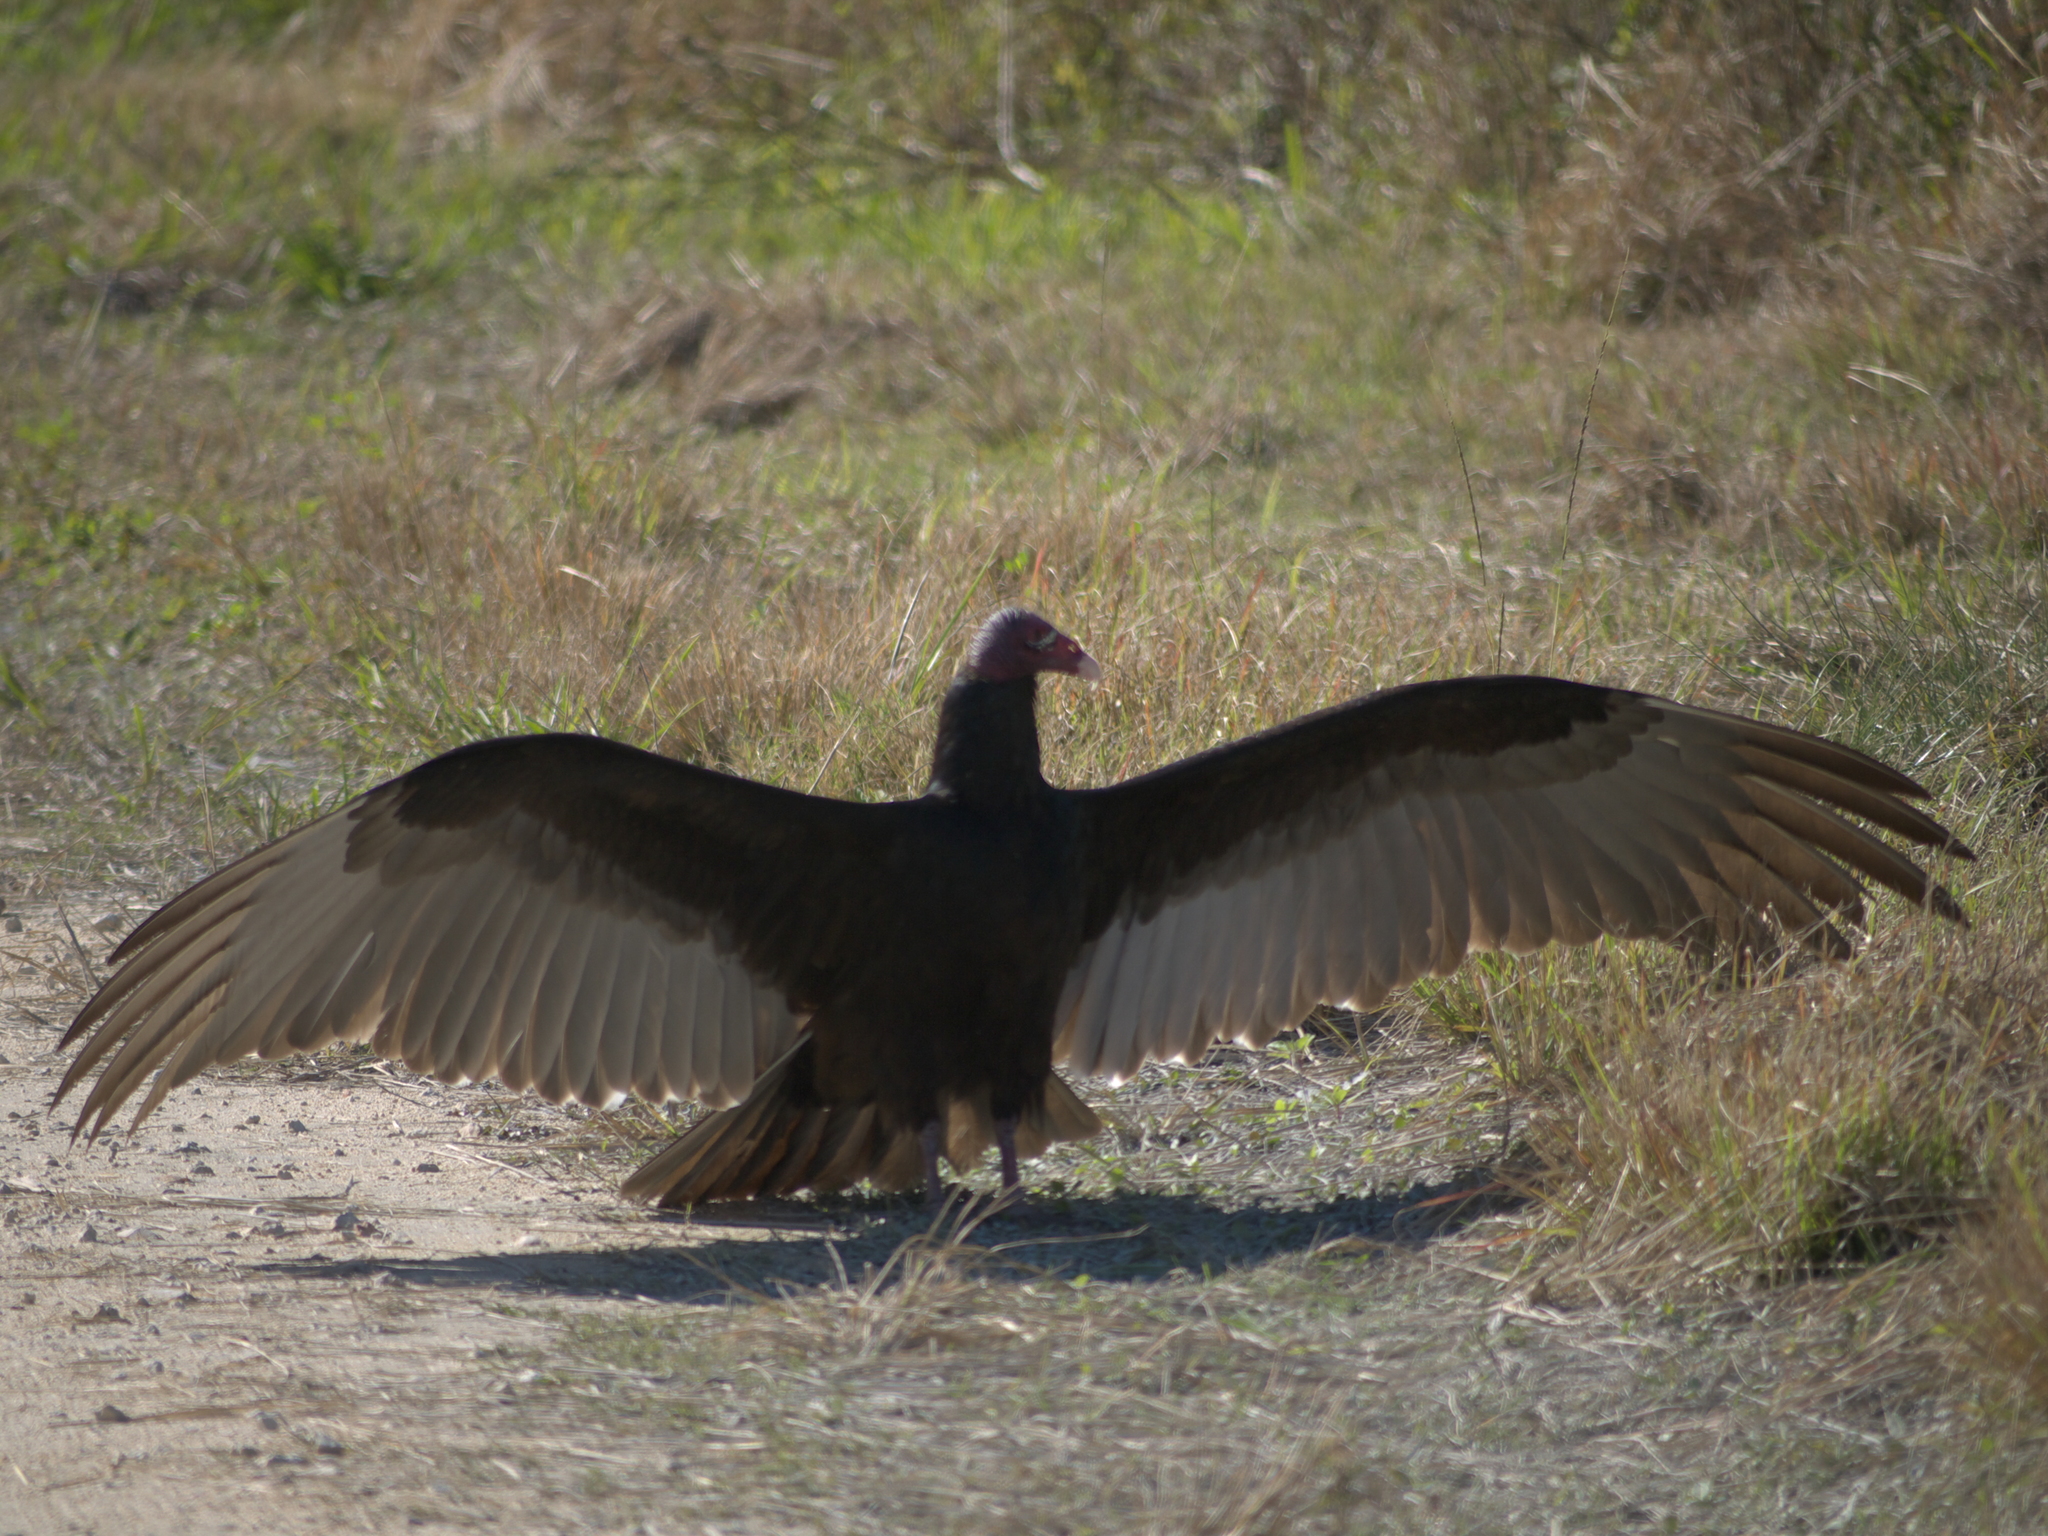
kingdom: Animalia
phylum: Chordata
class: Aves
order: Accipitriformes
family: Cathartidae
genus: Cathartes
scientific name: Cathartes aura
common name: Turkey vulture
